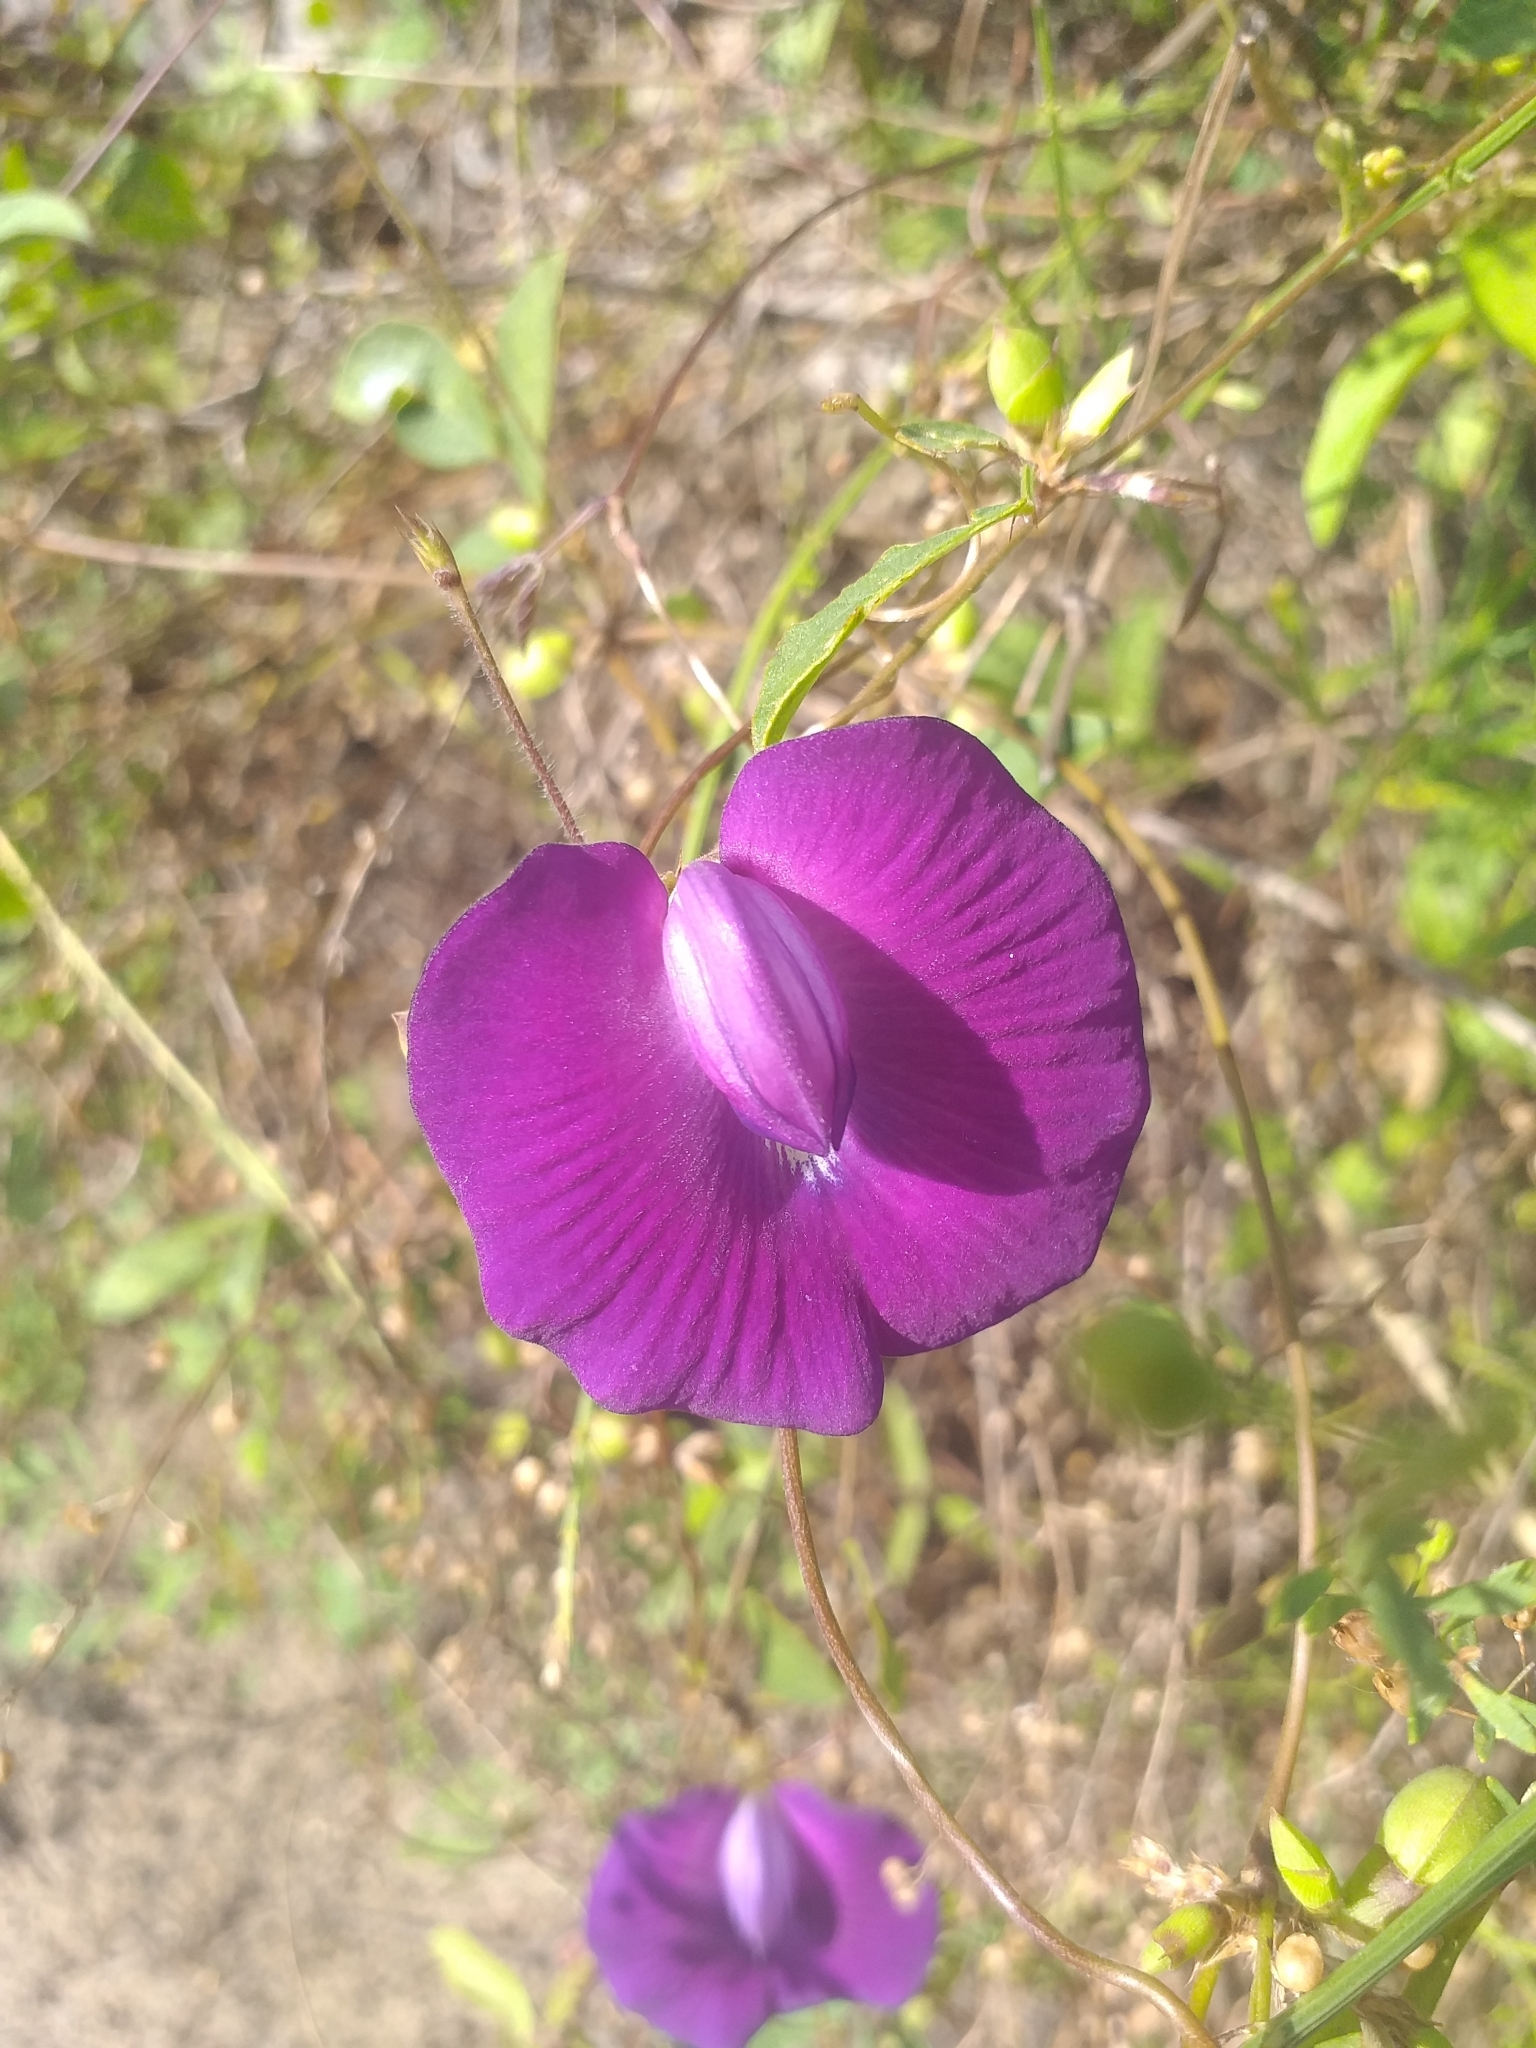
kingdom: Plantae
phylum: Tracheophyta
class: Magnoliopsida
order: Fabales
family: Fabaceae
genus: Centrosema
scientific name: Centrosema brasilianum
